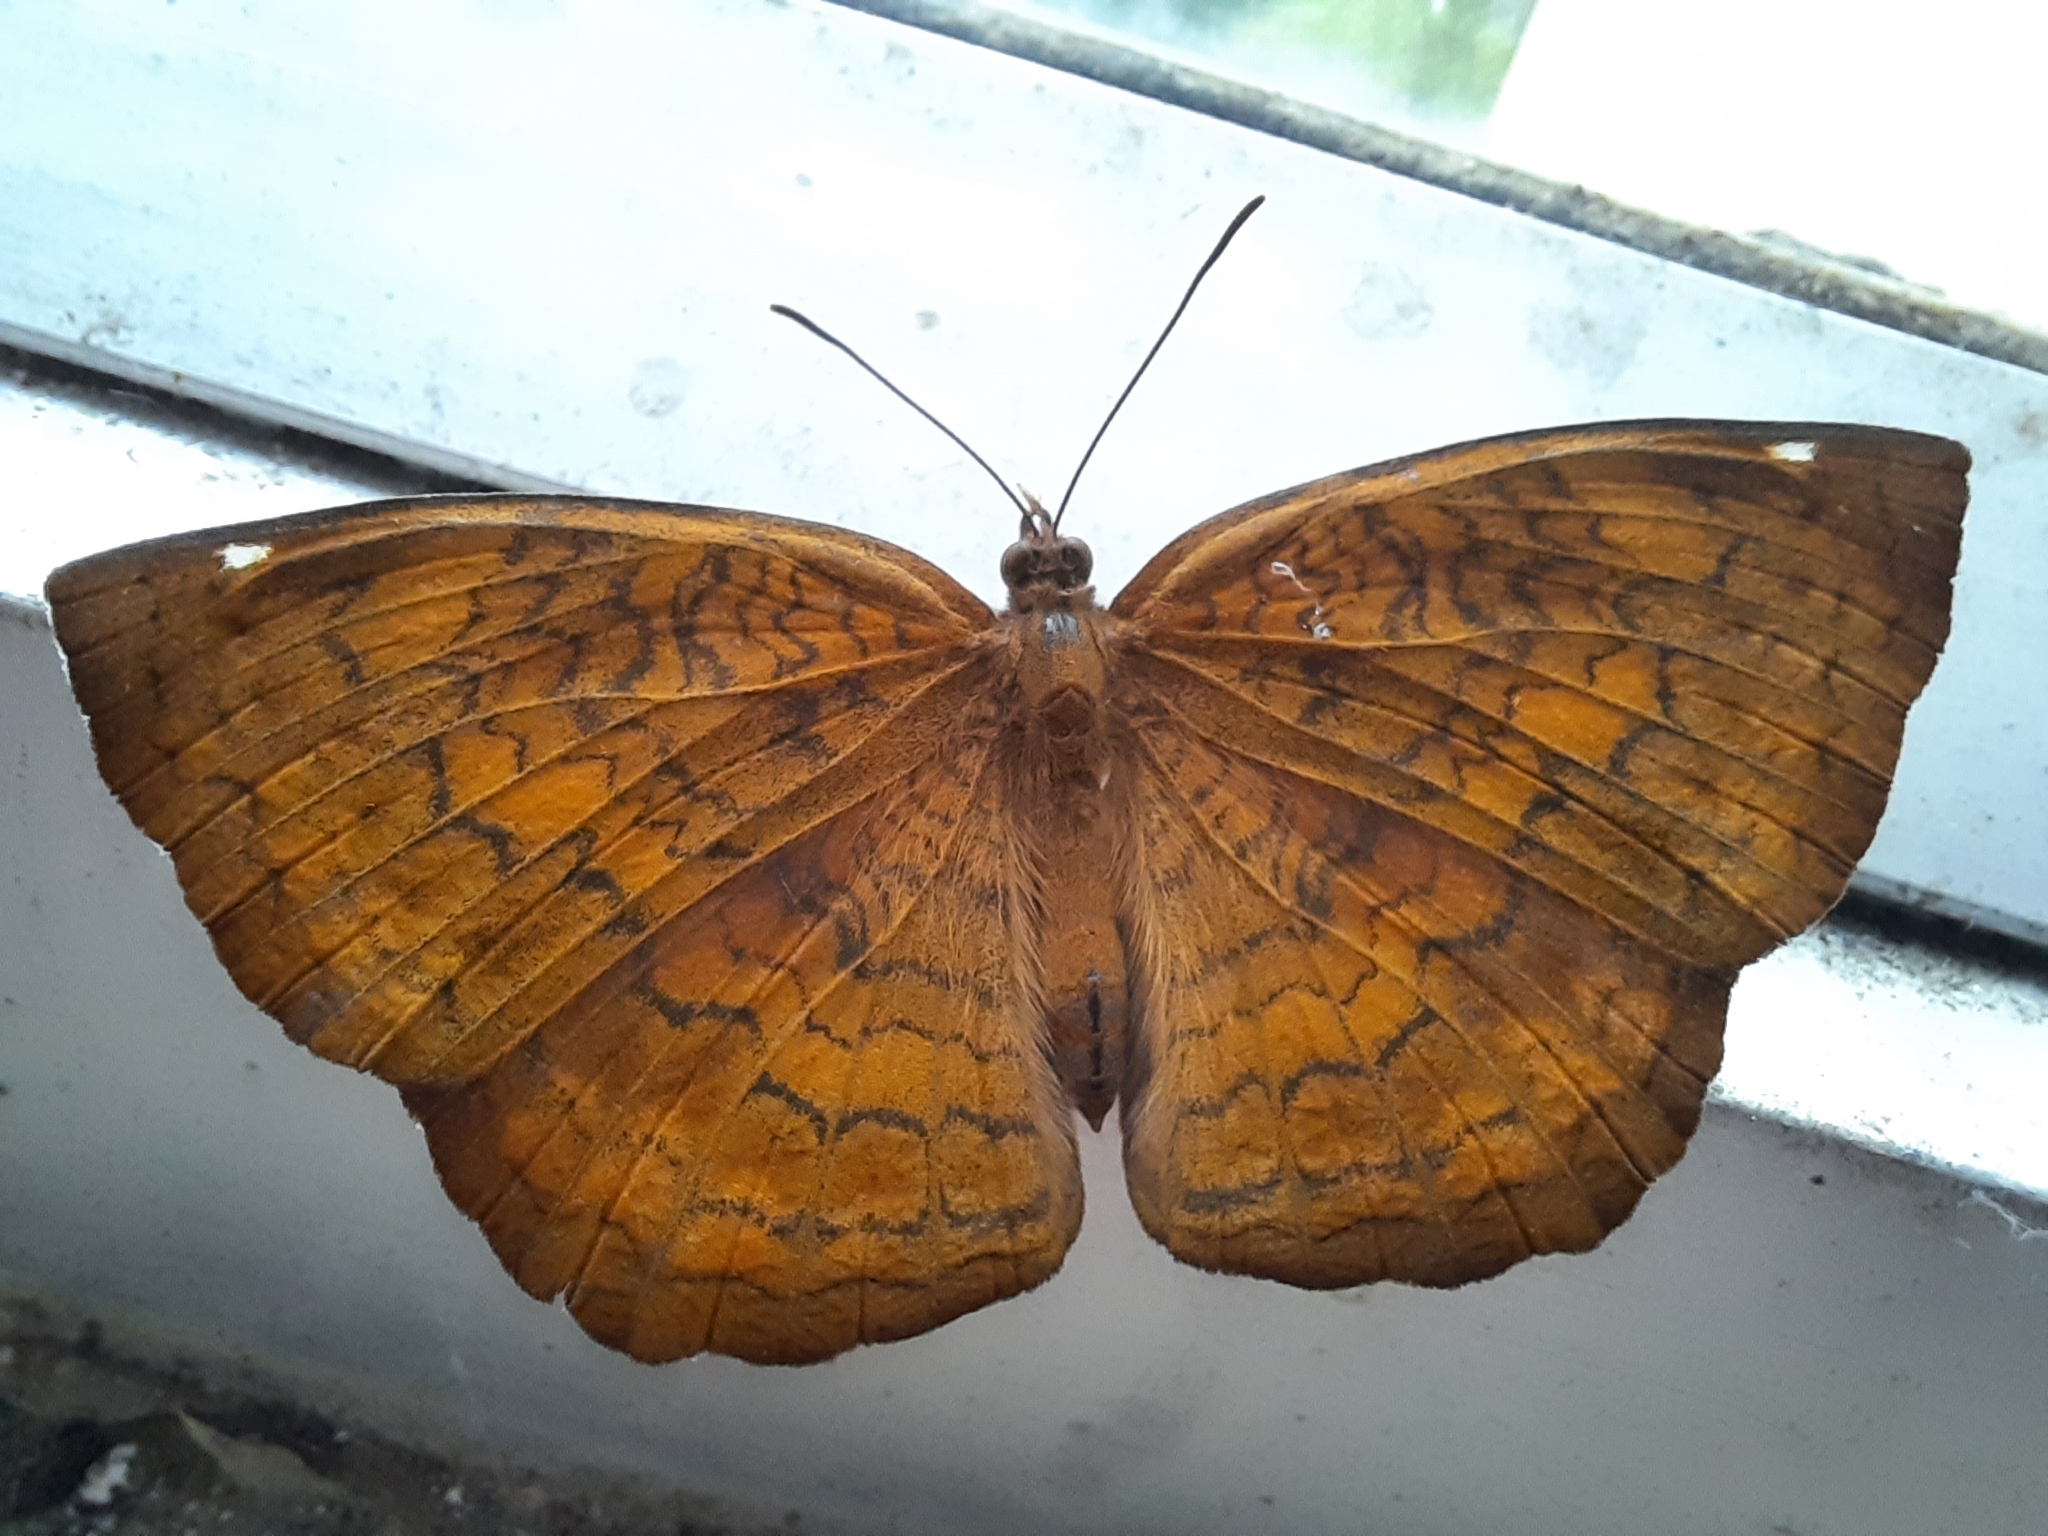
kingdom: Animalia
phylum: Arthropoda
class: Insecta
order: Lepidoptera
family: Nymphalidae
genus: Ariadne
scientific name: Ariadne merione
